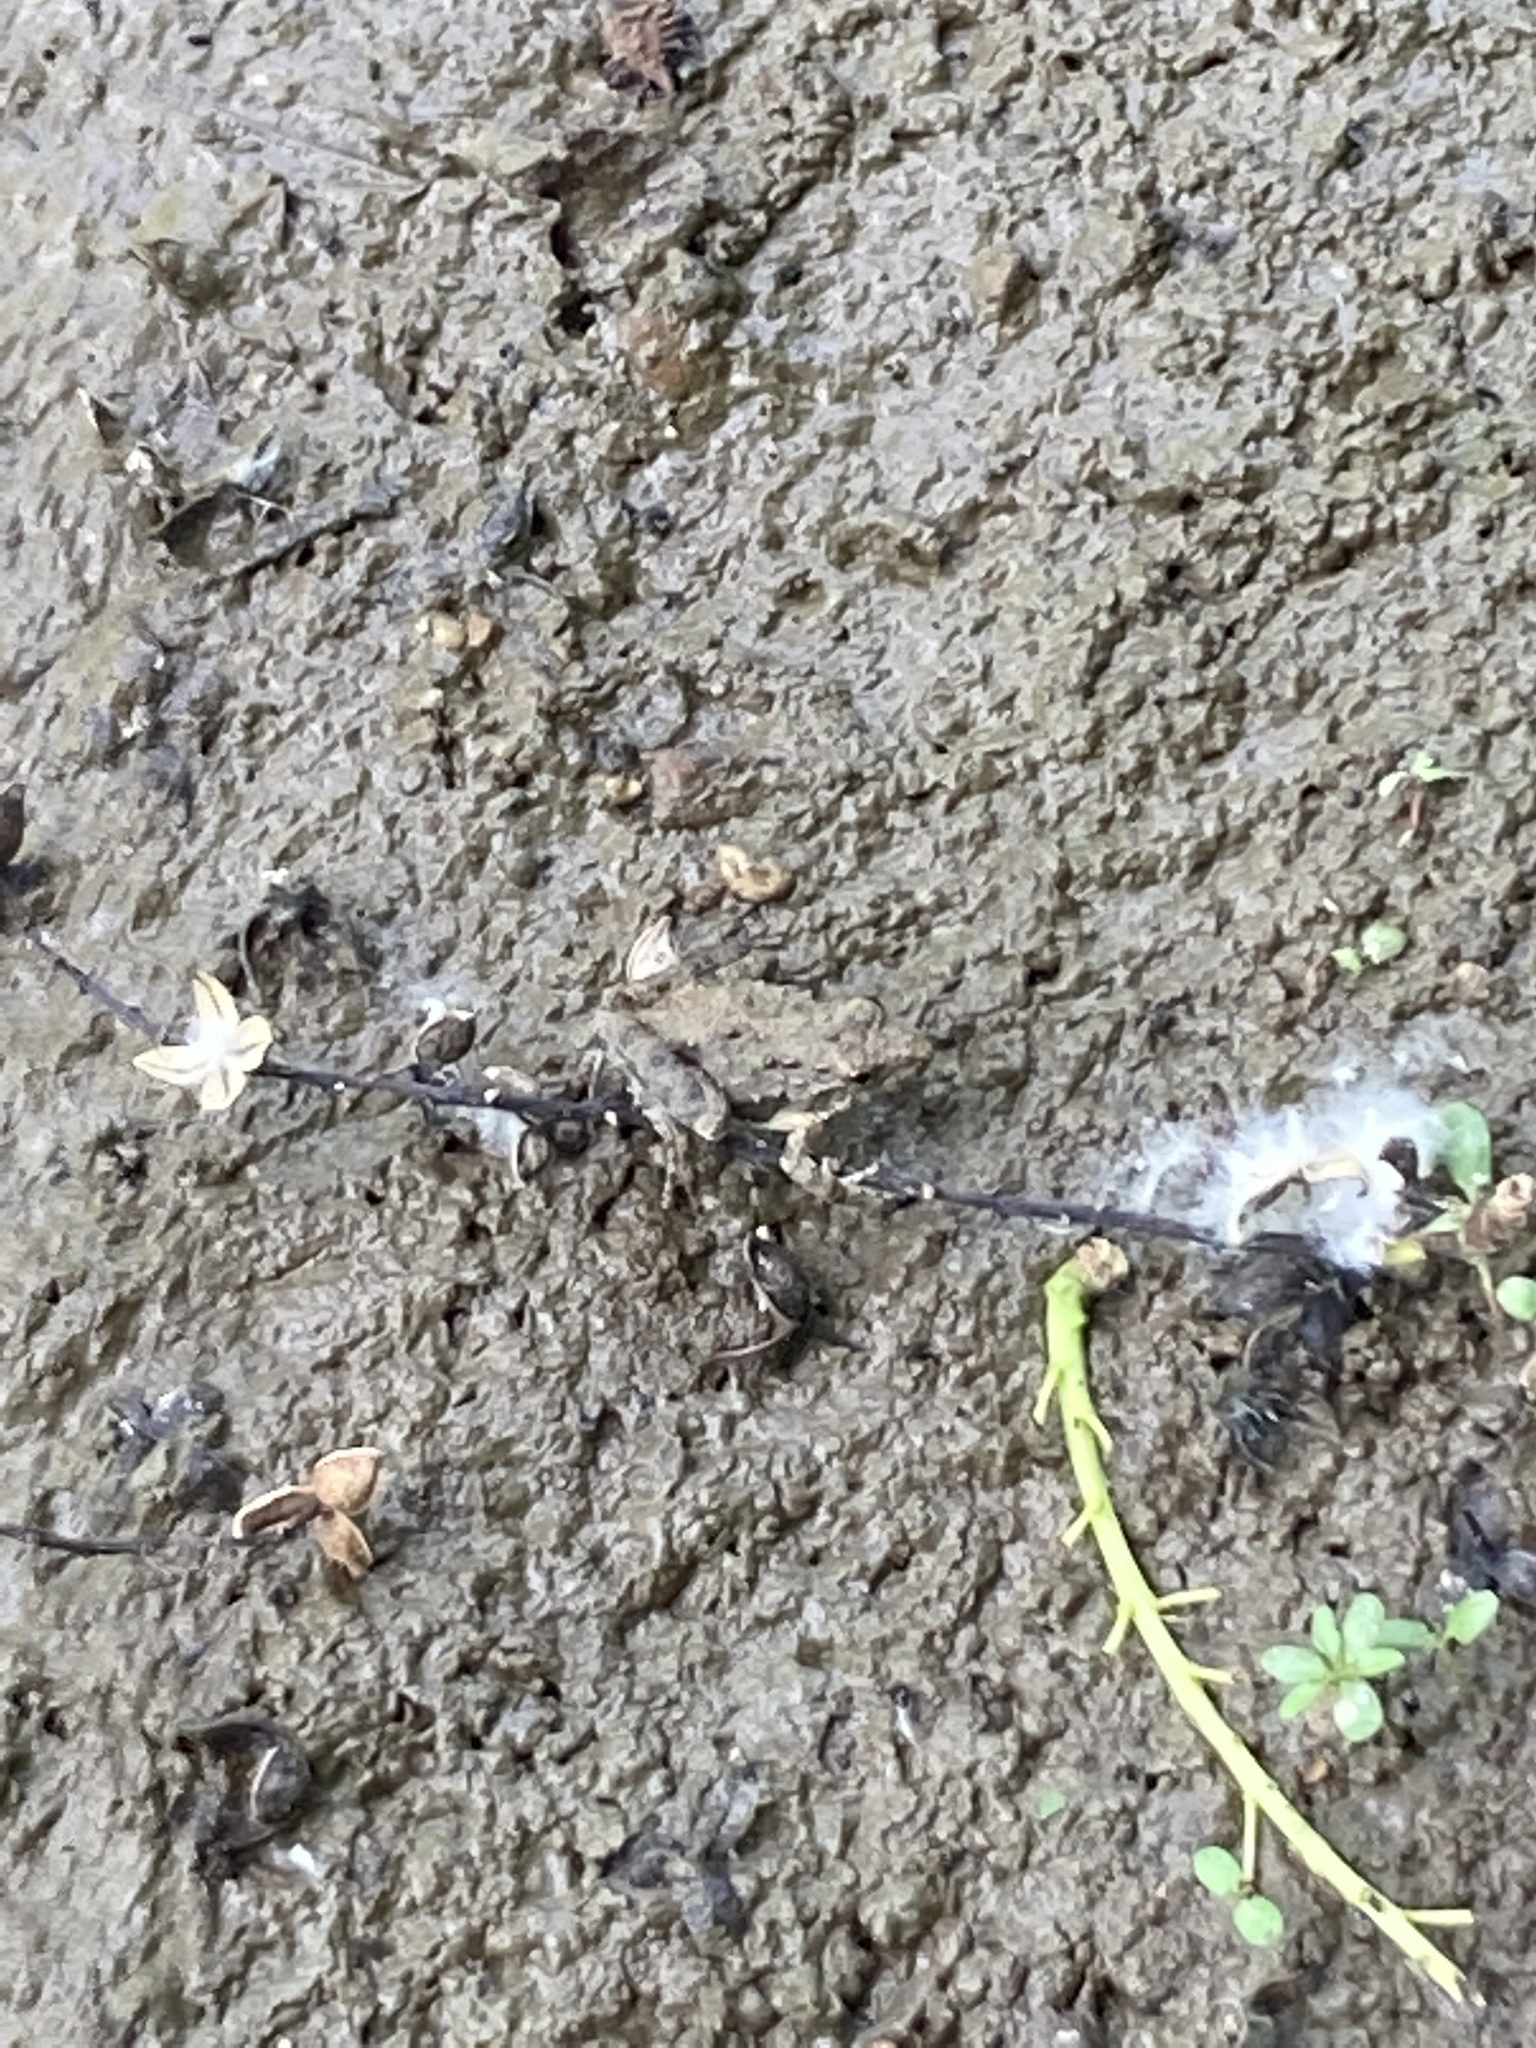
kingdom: Animalia
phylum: Chordata
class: Amphibia
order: Anura
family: Hylidae
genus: Acris
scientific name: Acris blanchardi
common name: Blanchard's cricket frog
